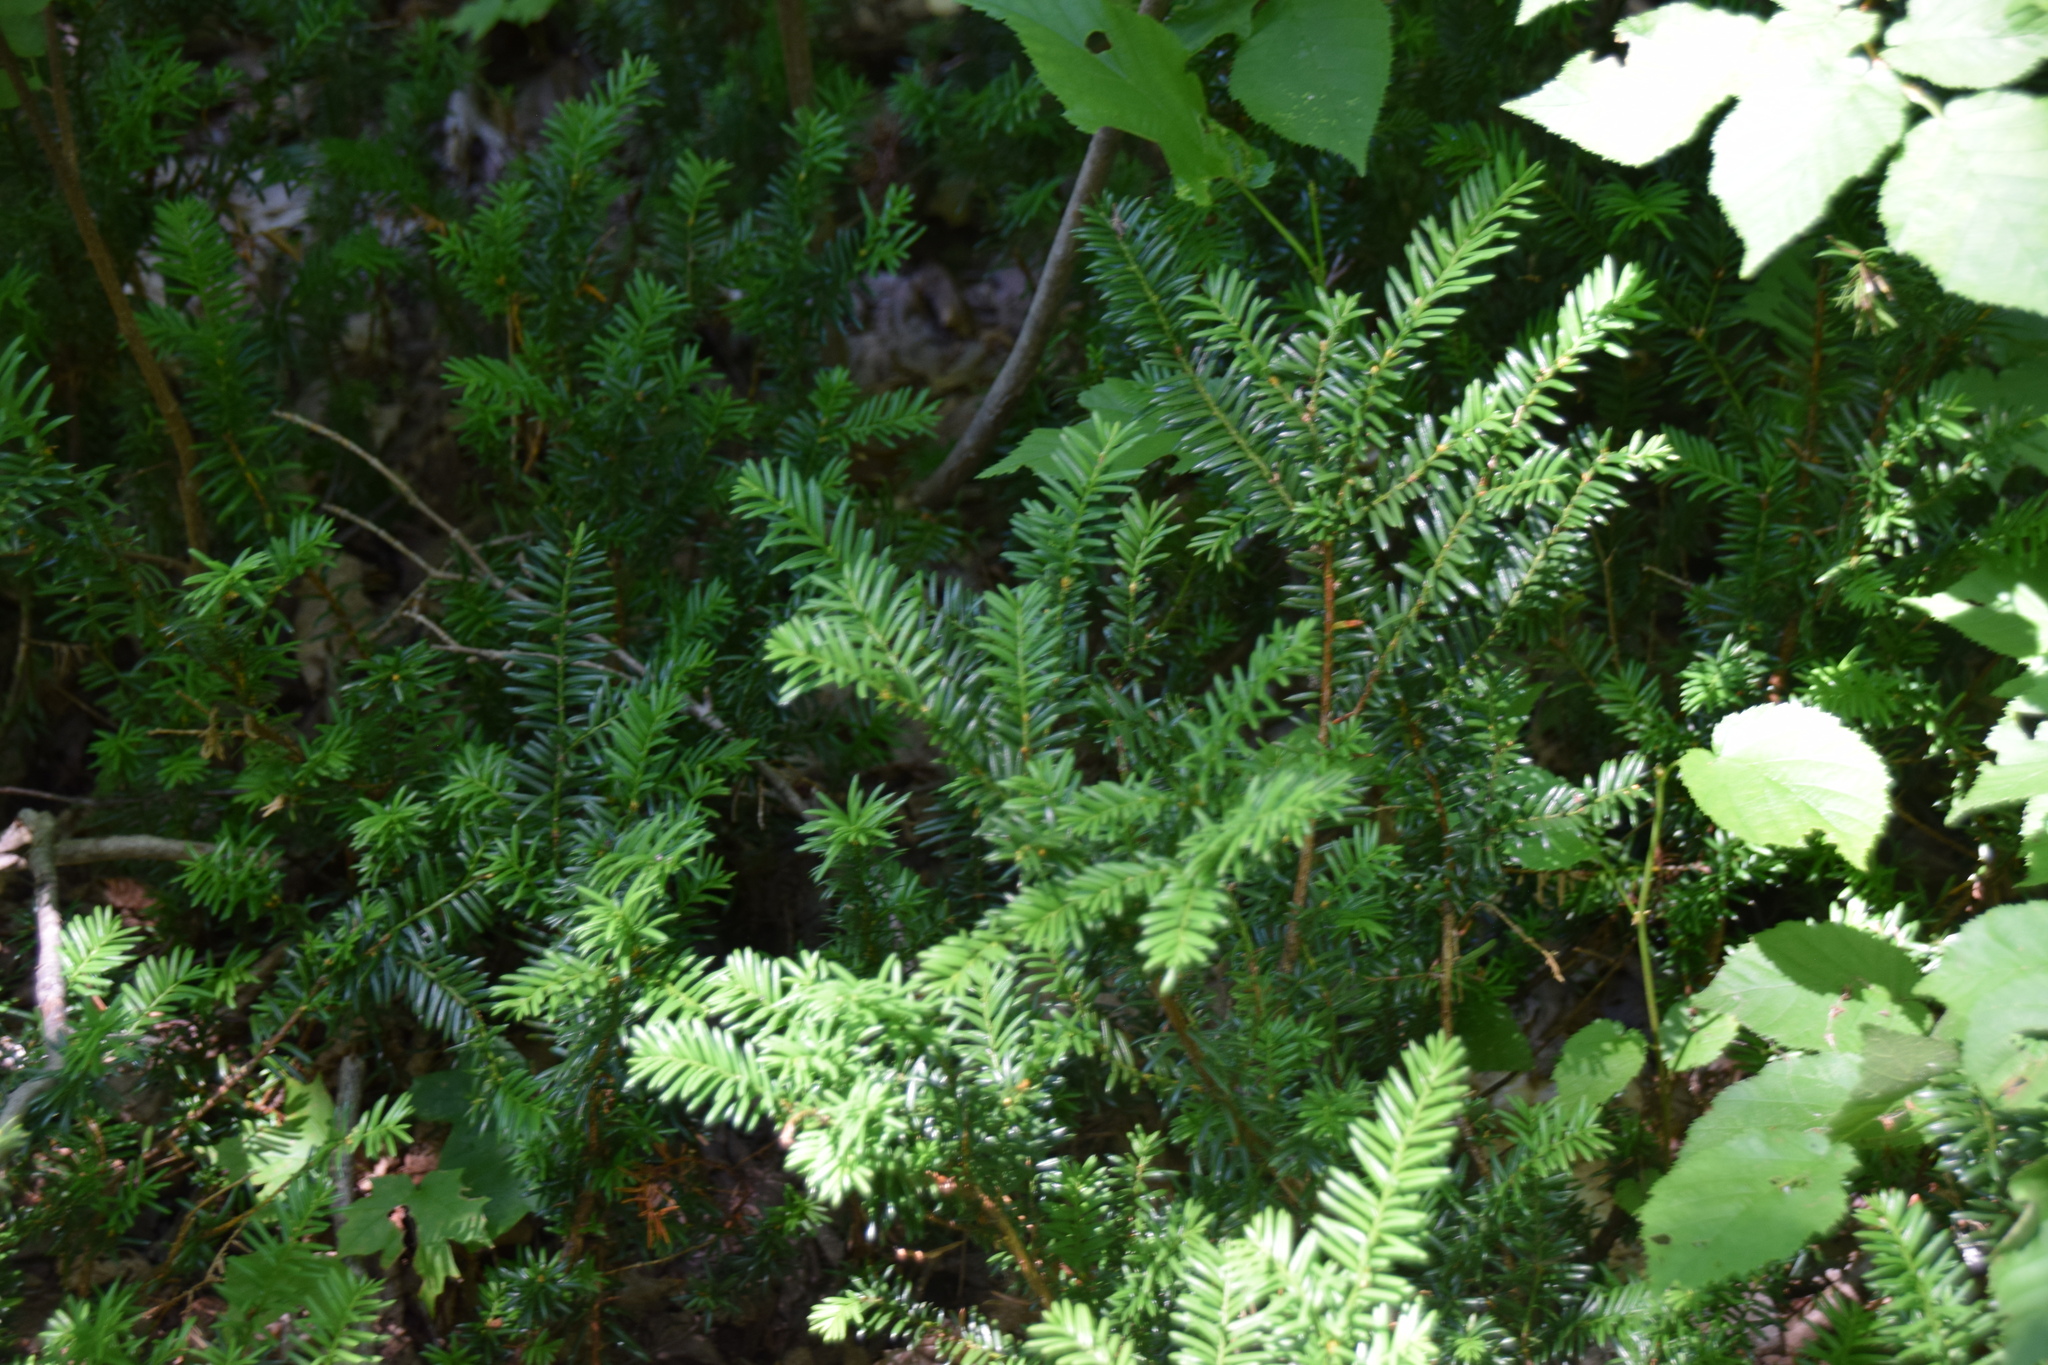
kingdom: Plantae
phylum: Tracheophyta
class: Pinopsida
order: Pinales
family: Taxaceae
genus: Taxus
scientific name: Taxus canadensis
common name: American yew
